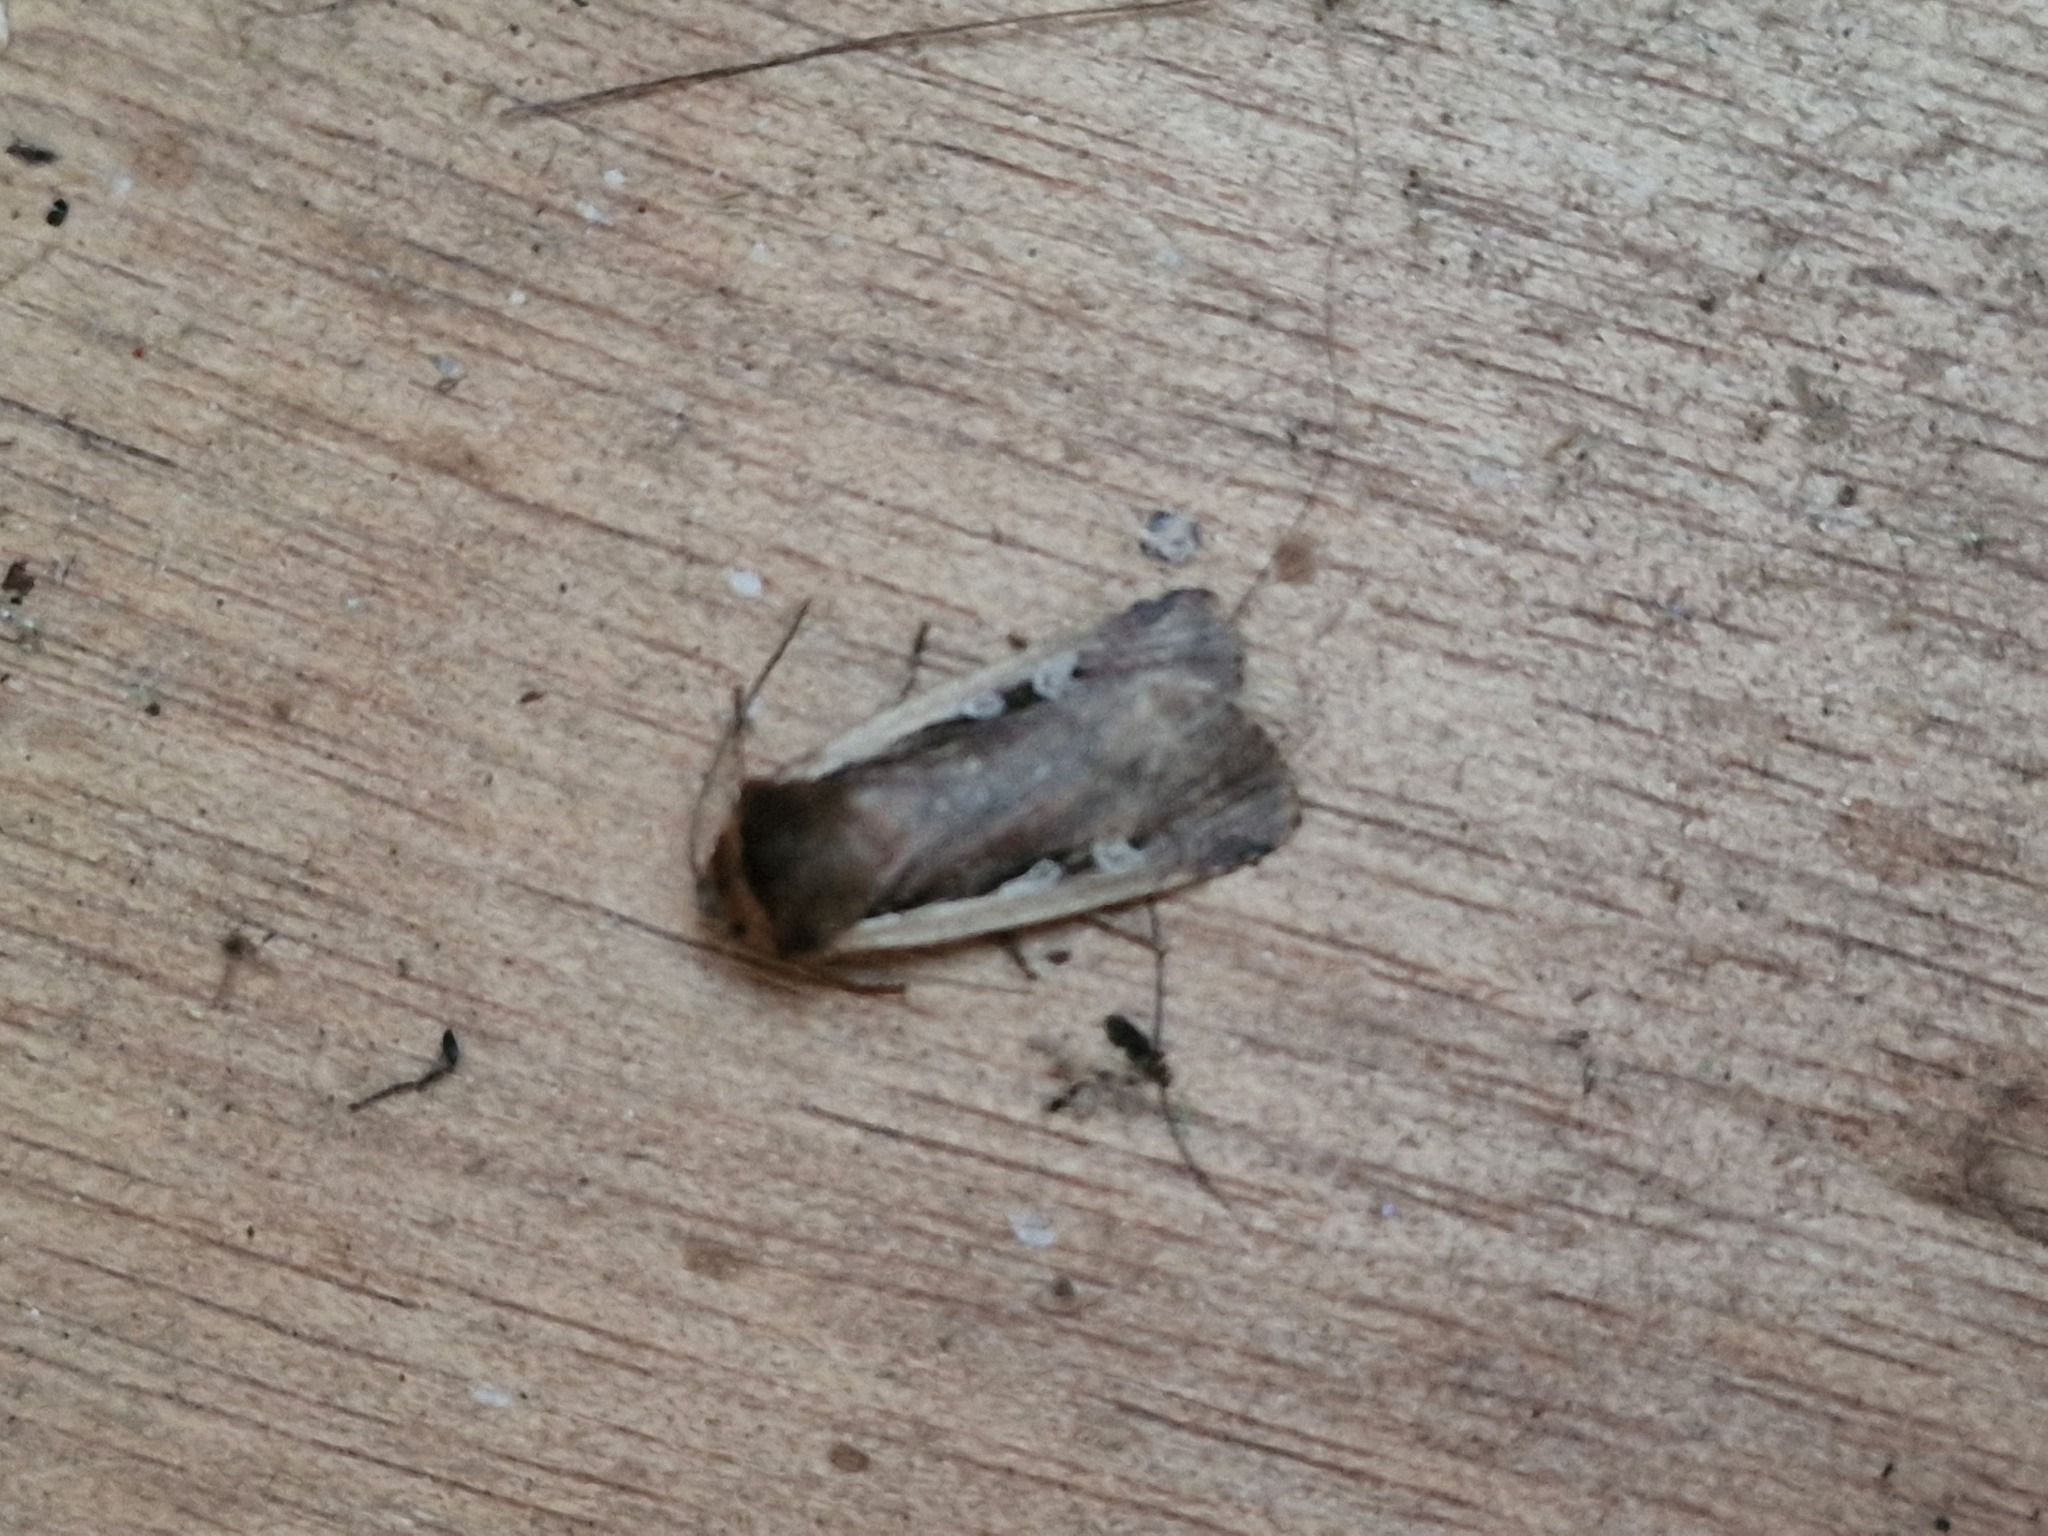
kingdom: Animalia
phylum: Arthropoda
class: Insecta
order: Lepidoptera
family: Noctuidae
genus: Ochropleura
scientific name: Ochropleura plecta
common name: Flame shoulder
